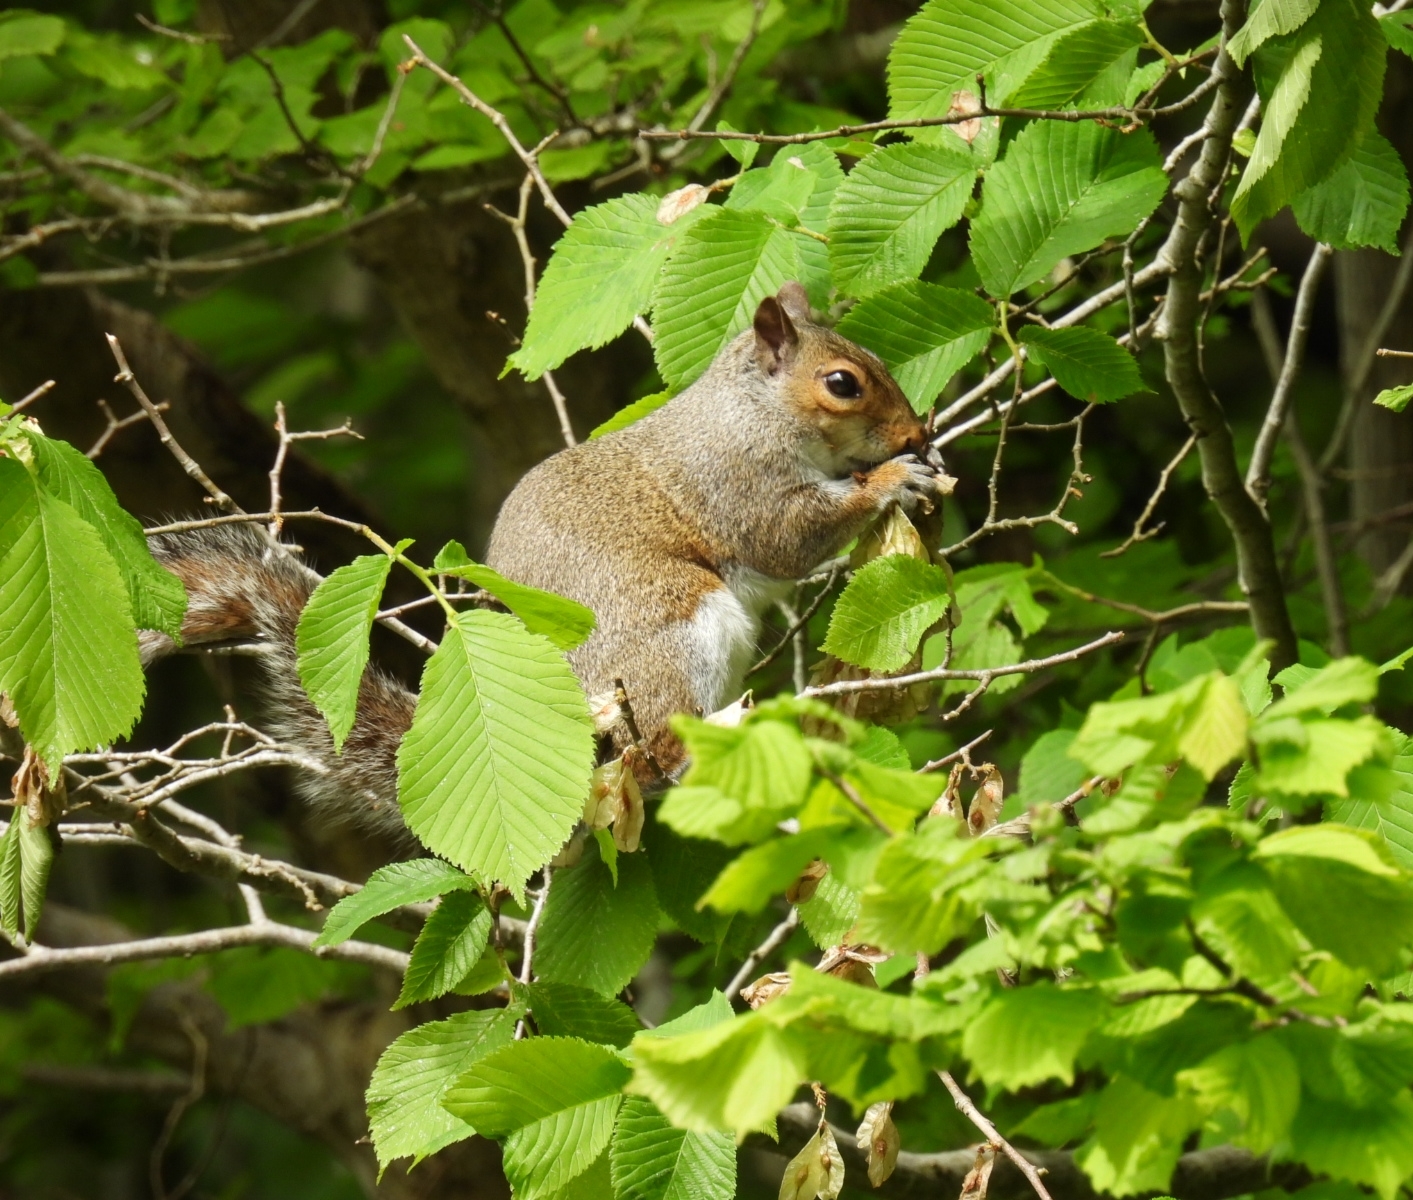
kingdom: Animalia
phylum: Chordata
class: Mammalia
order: Rodentia
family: Sciuridae
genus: Sciurus
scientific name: Sciurus carolinensis
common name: Eastern gray squirrel
